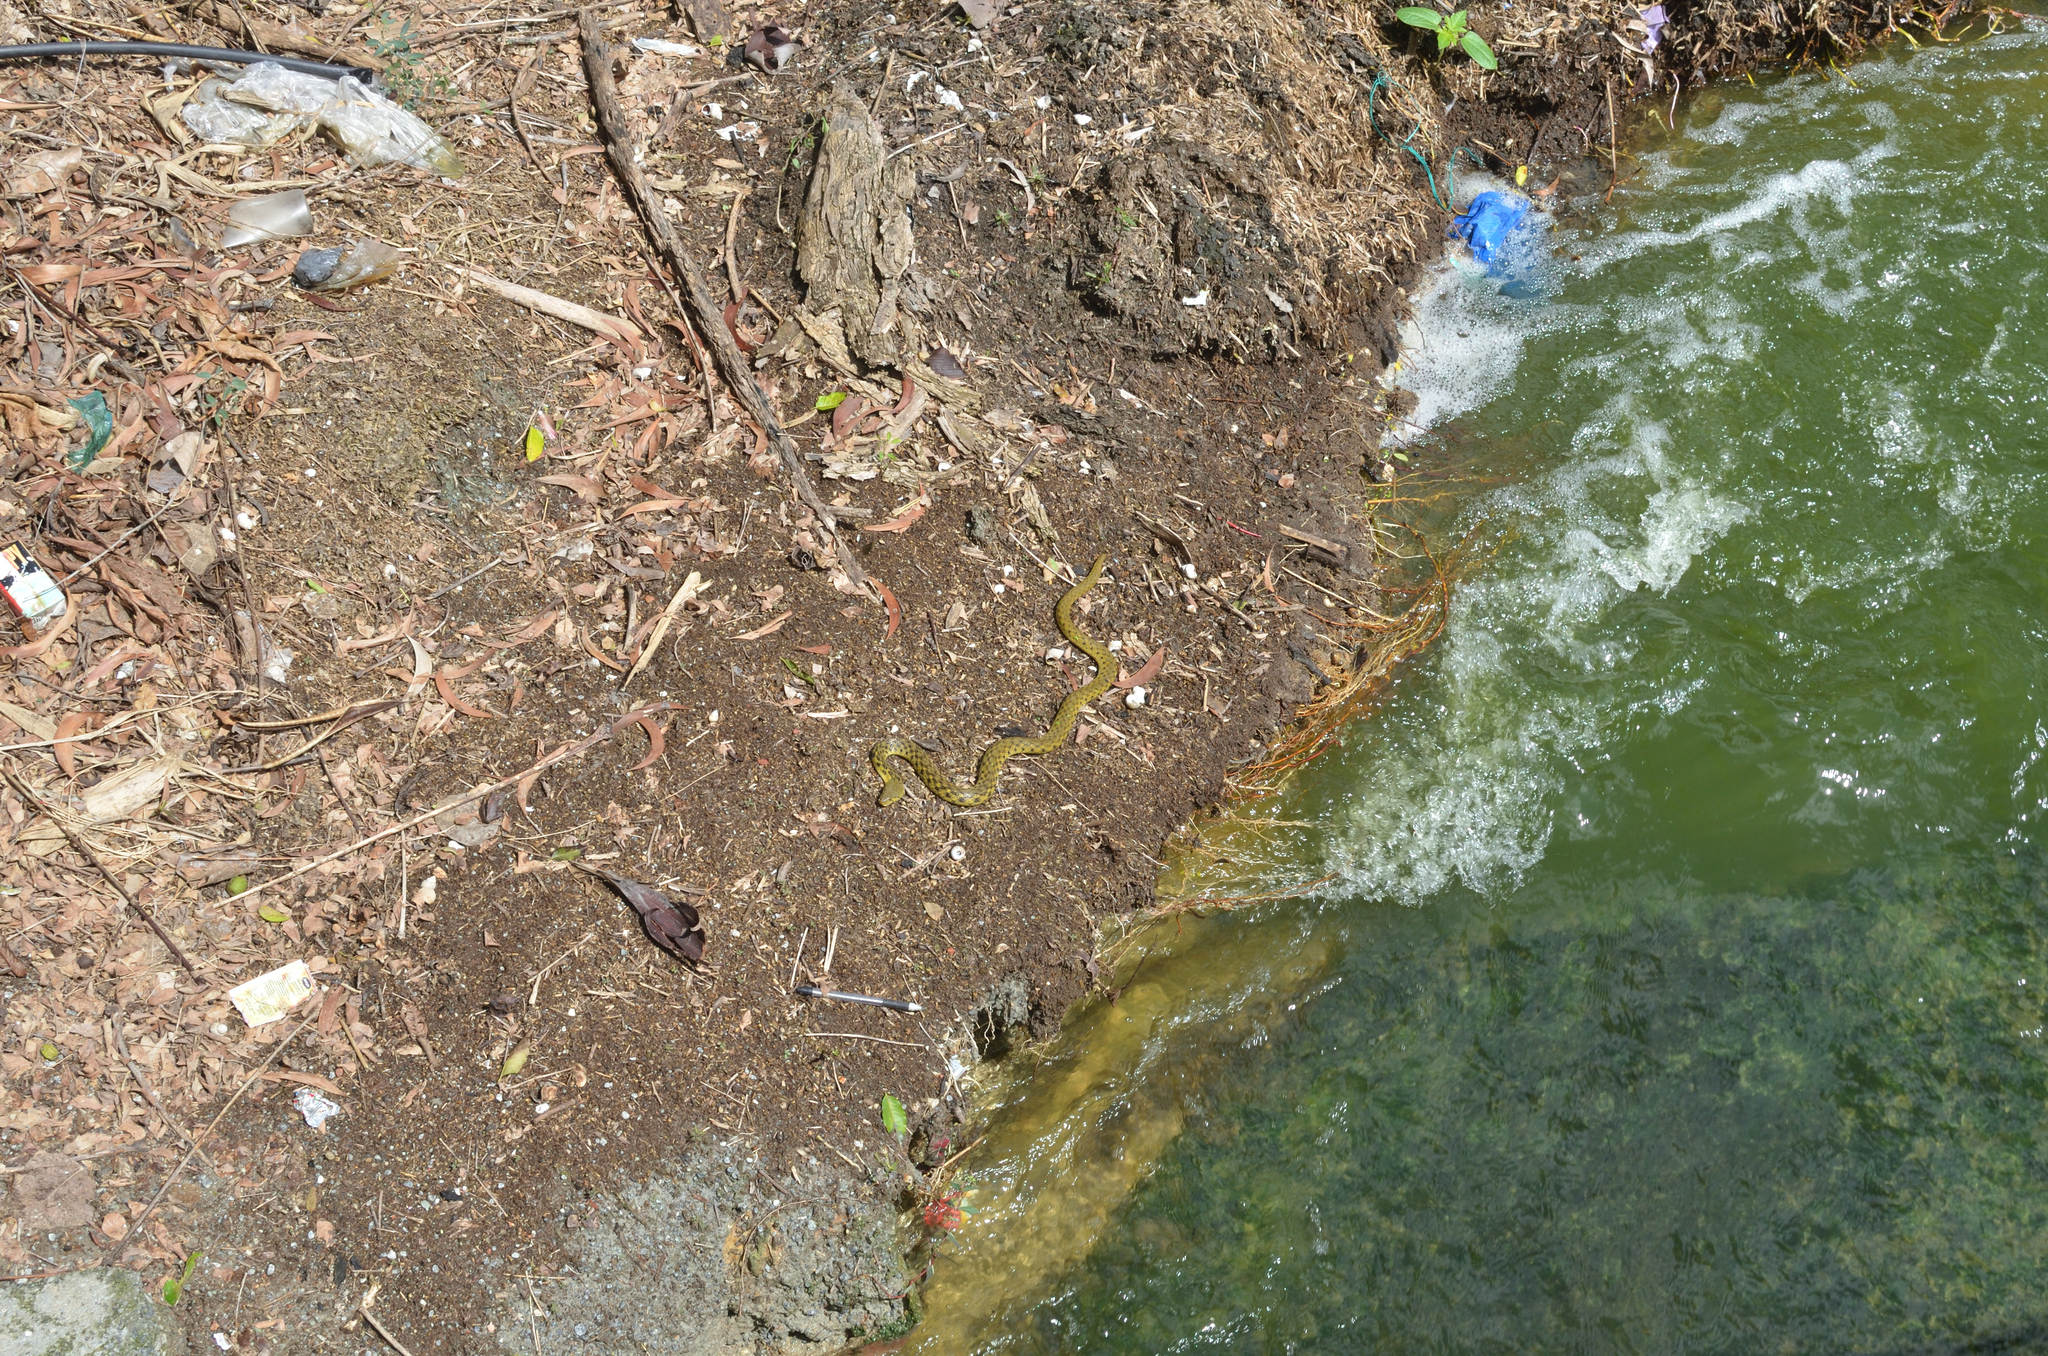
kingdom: Animalia
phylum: Chordata
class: Squamata
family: Colubridae
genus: Fowlea
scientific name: Fowlea piscator
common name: Asiatic water snake
